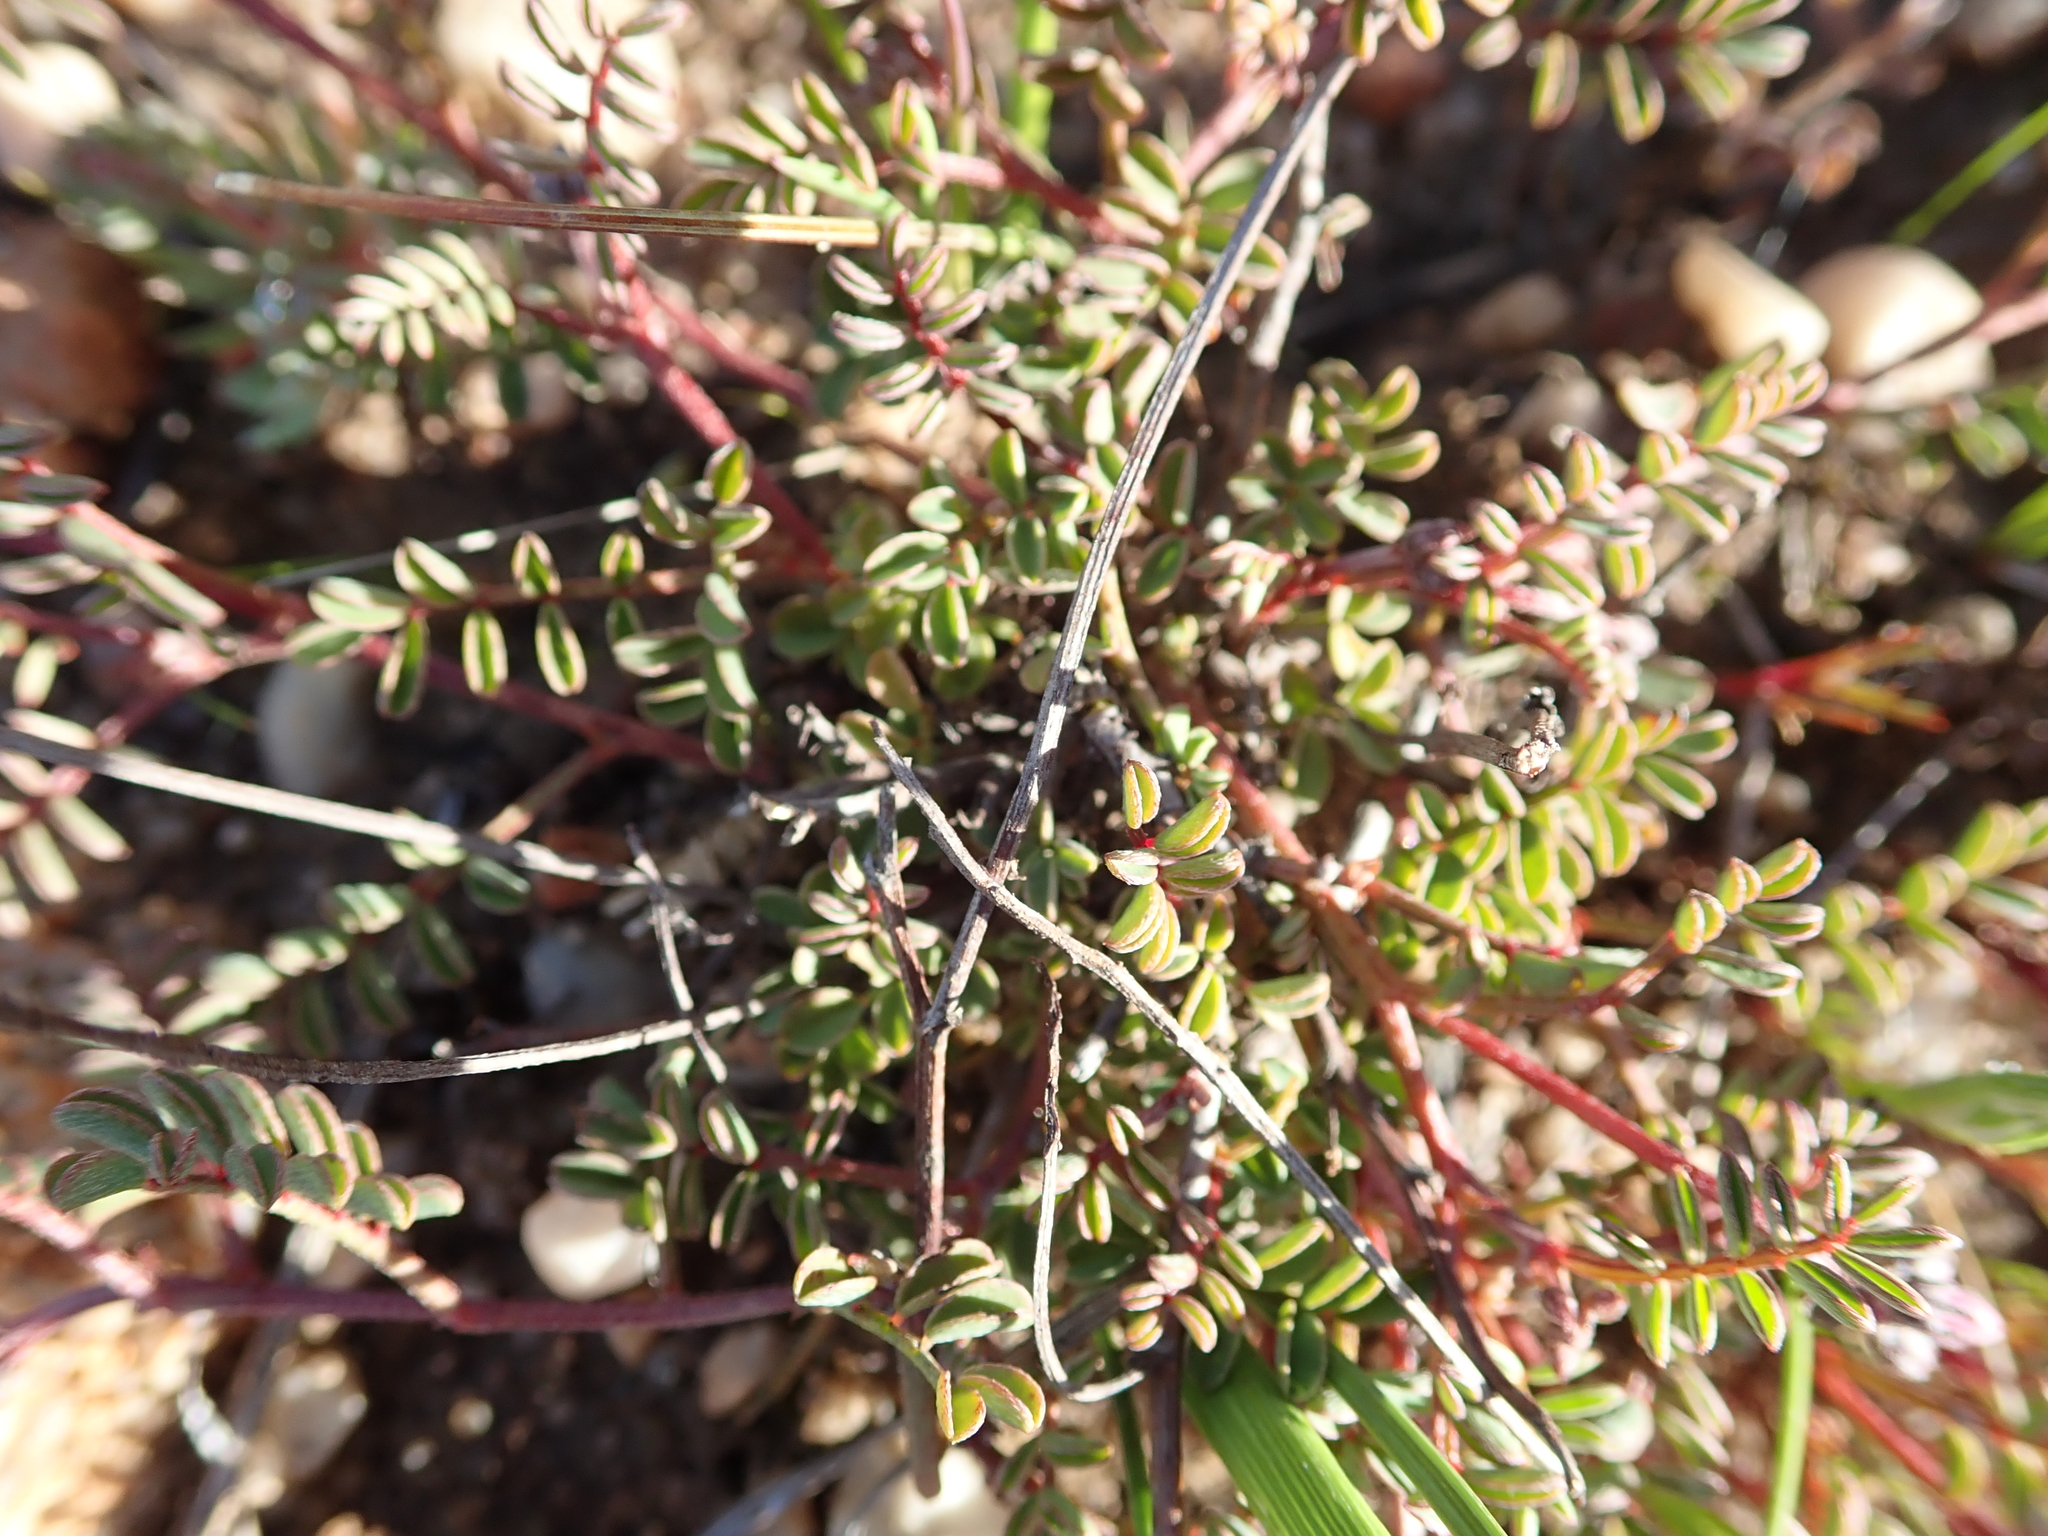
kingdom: Plantae
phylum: Tracheophyta
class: Magnoliopsida
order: Fabales
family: Fabaceae
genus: Indigofera
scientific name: Indigofera
